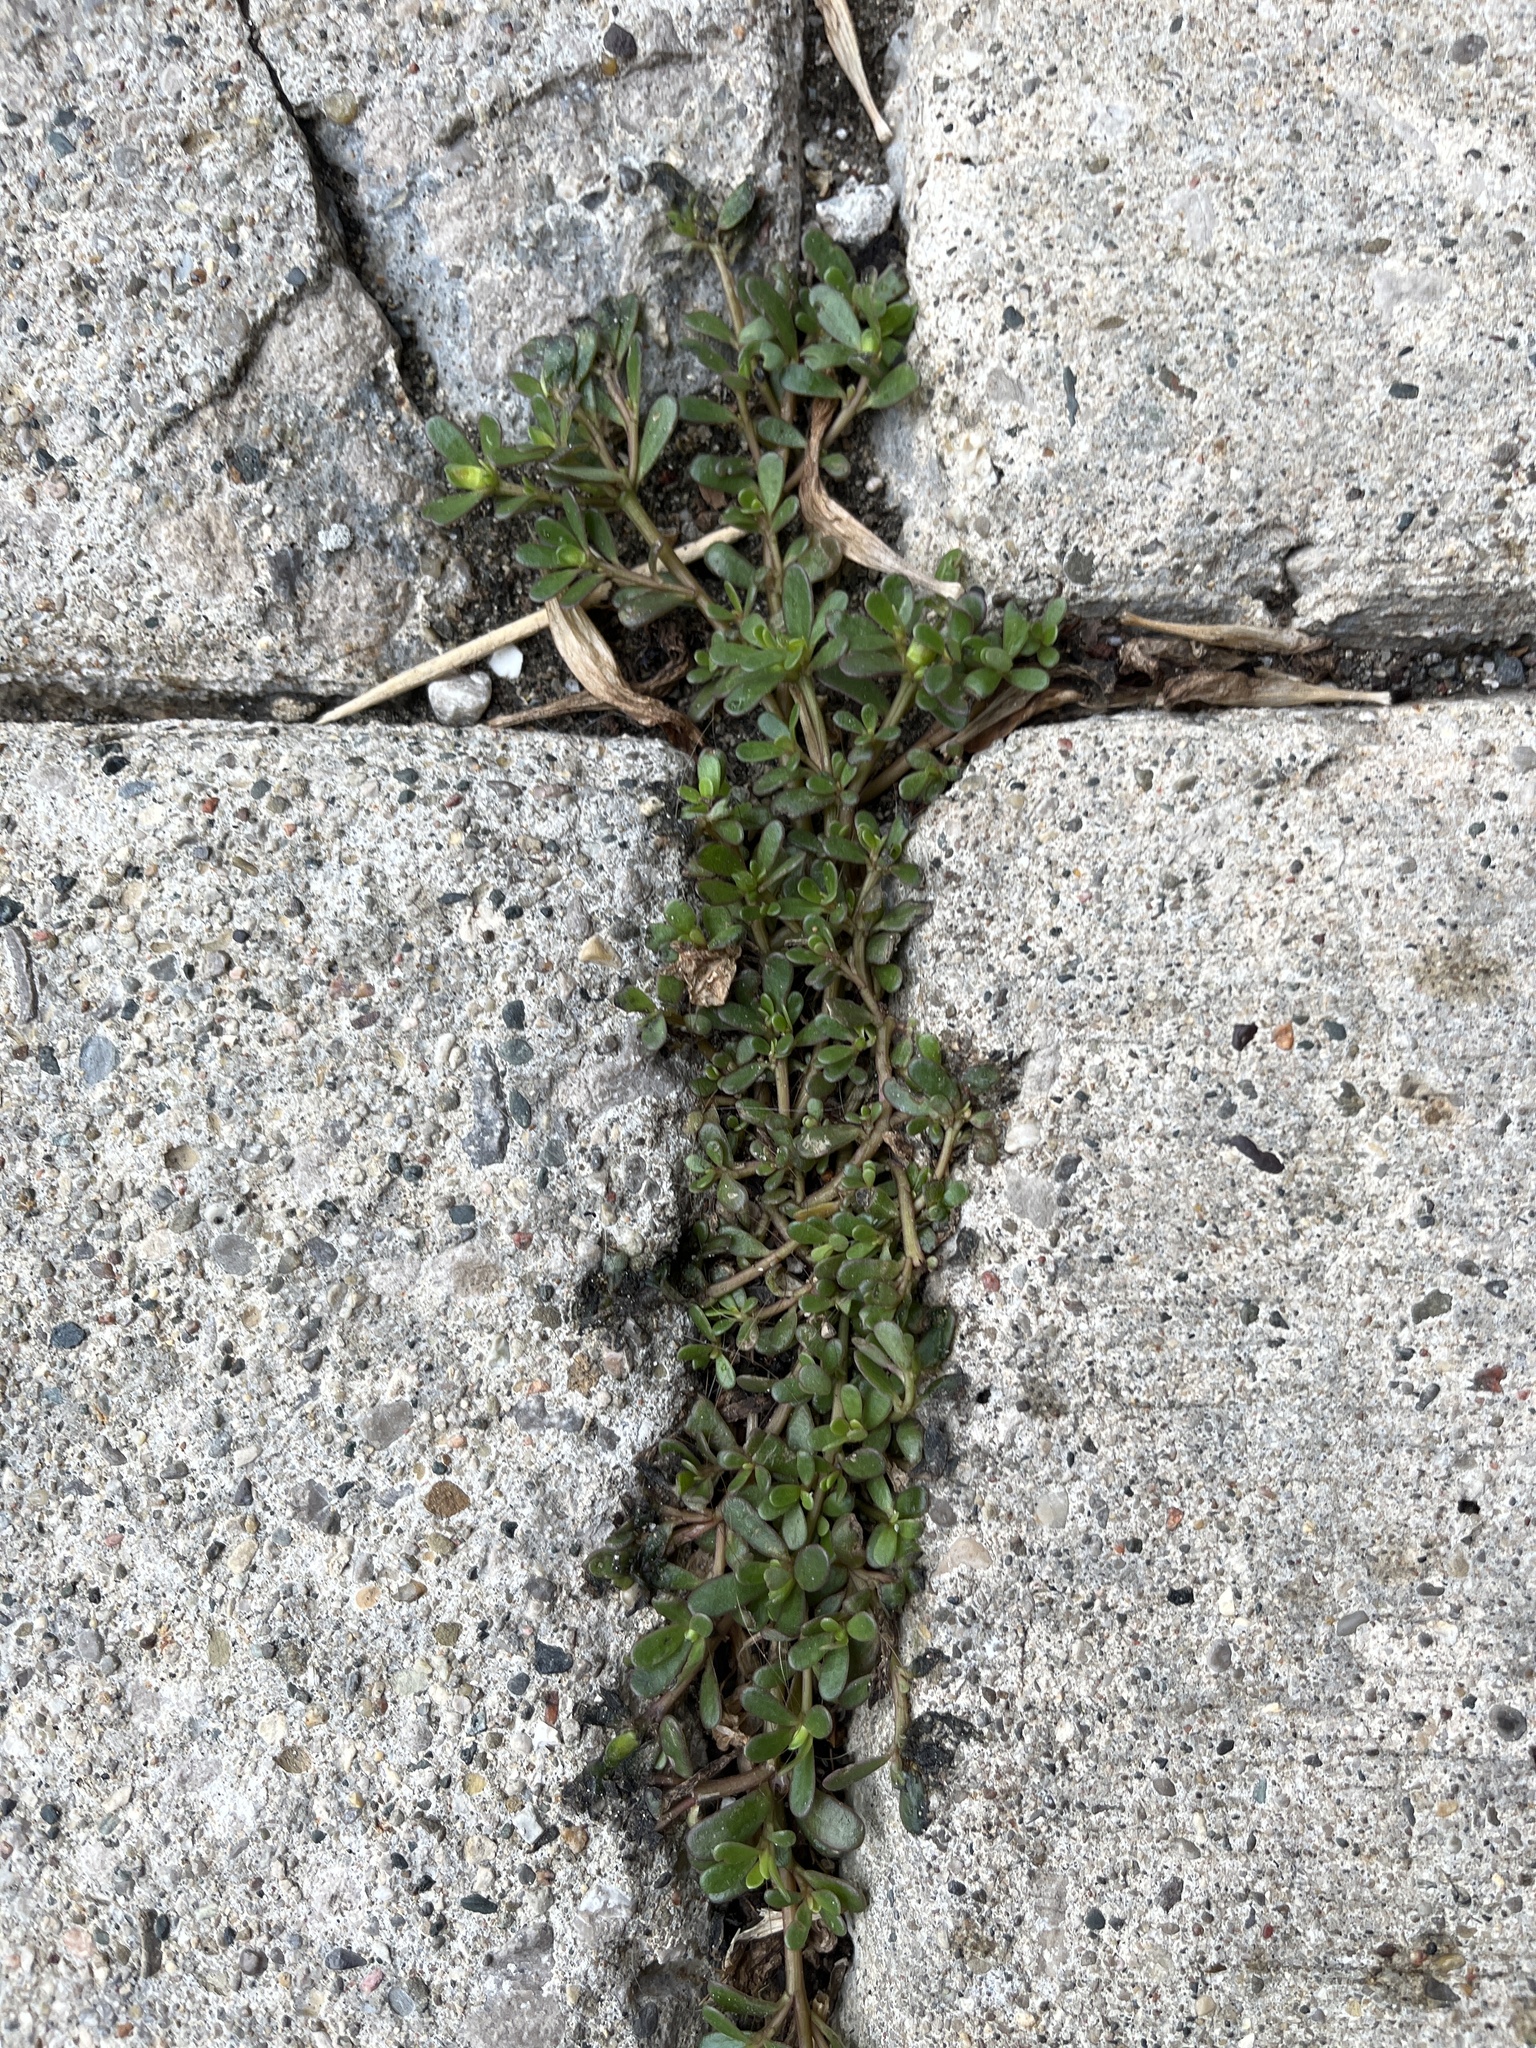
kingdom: Plantae
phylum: Tracheophyta
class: Magnoliopsida
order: Caryophyllales
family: Portulacaceae
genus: Portulaca
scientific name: Portulaca oleracea
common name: Common purslane
